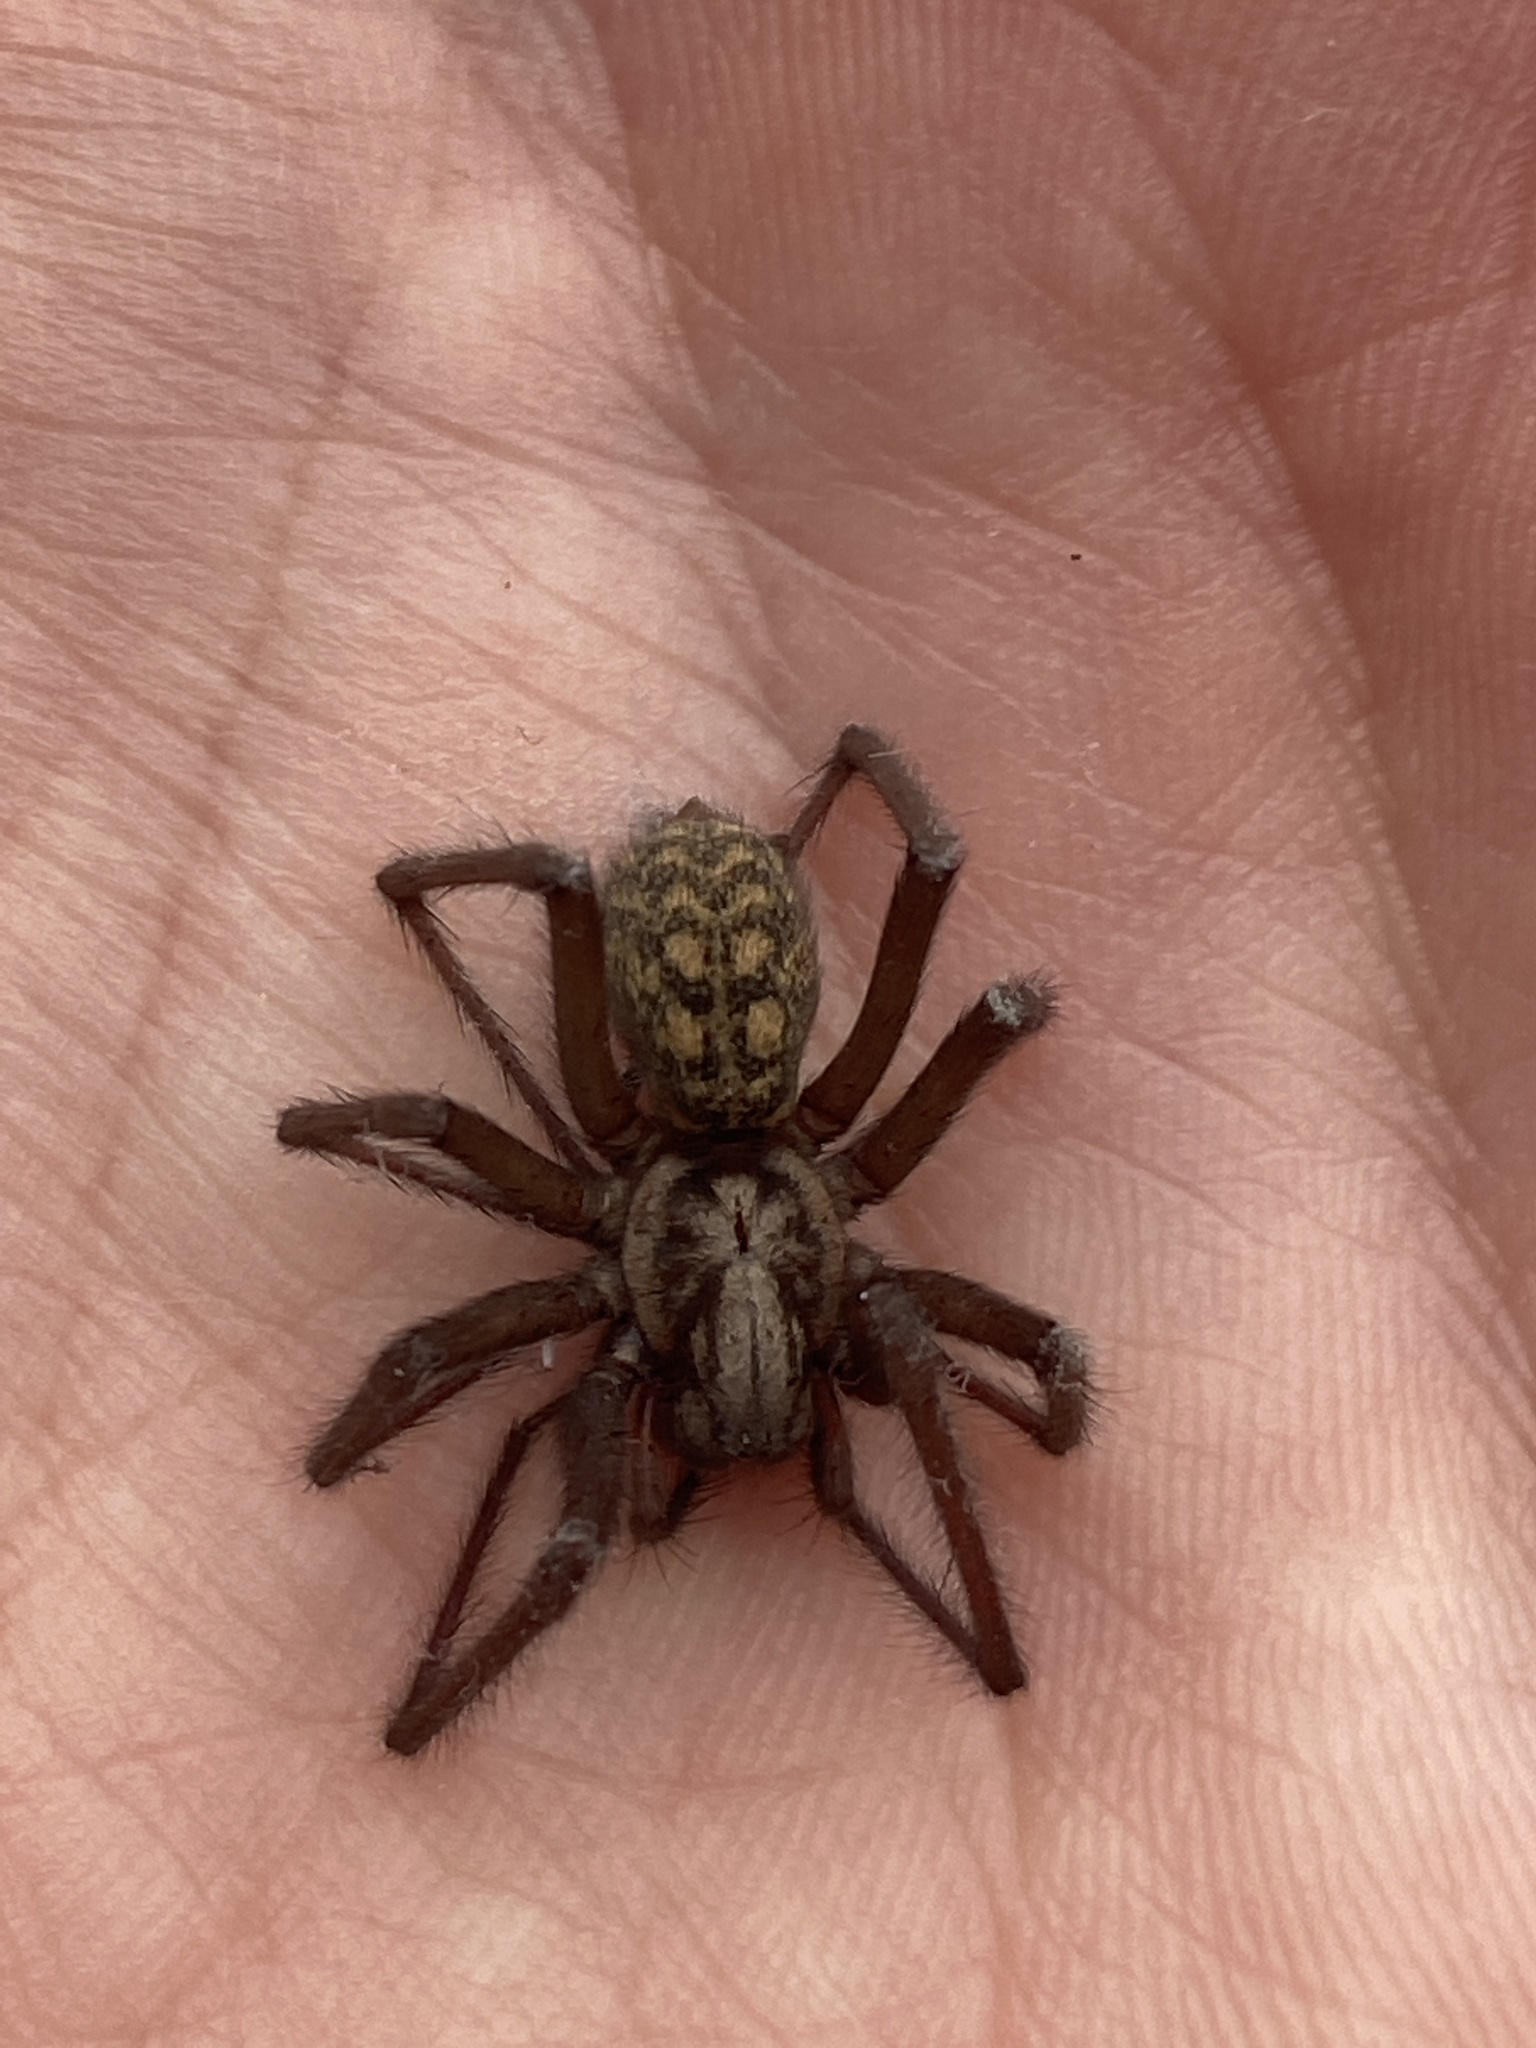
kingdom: Animalia
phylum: Arthropoda
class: Arachnida
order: Araneae
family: Agelenidae
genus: Eratigena
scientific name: Eratigena atrica
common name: Giant house spider
